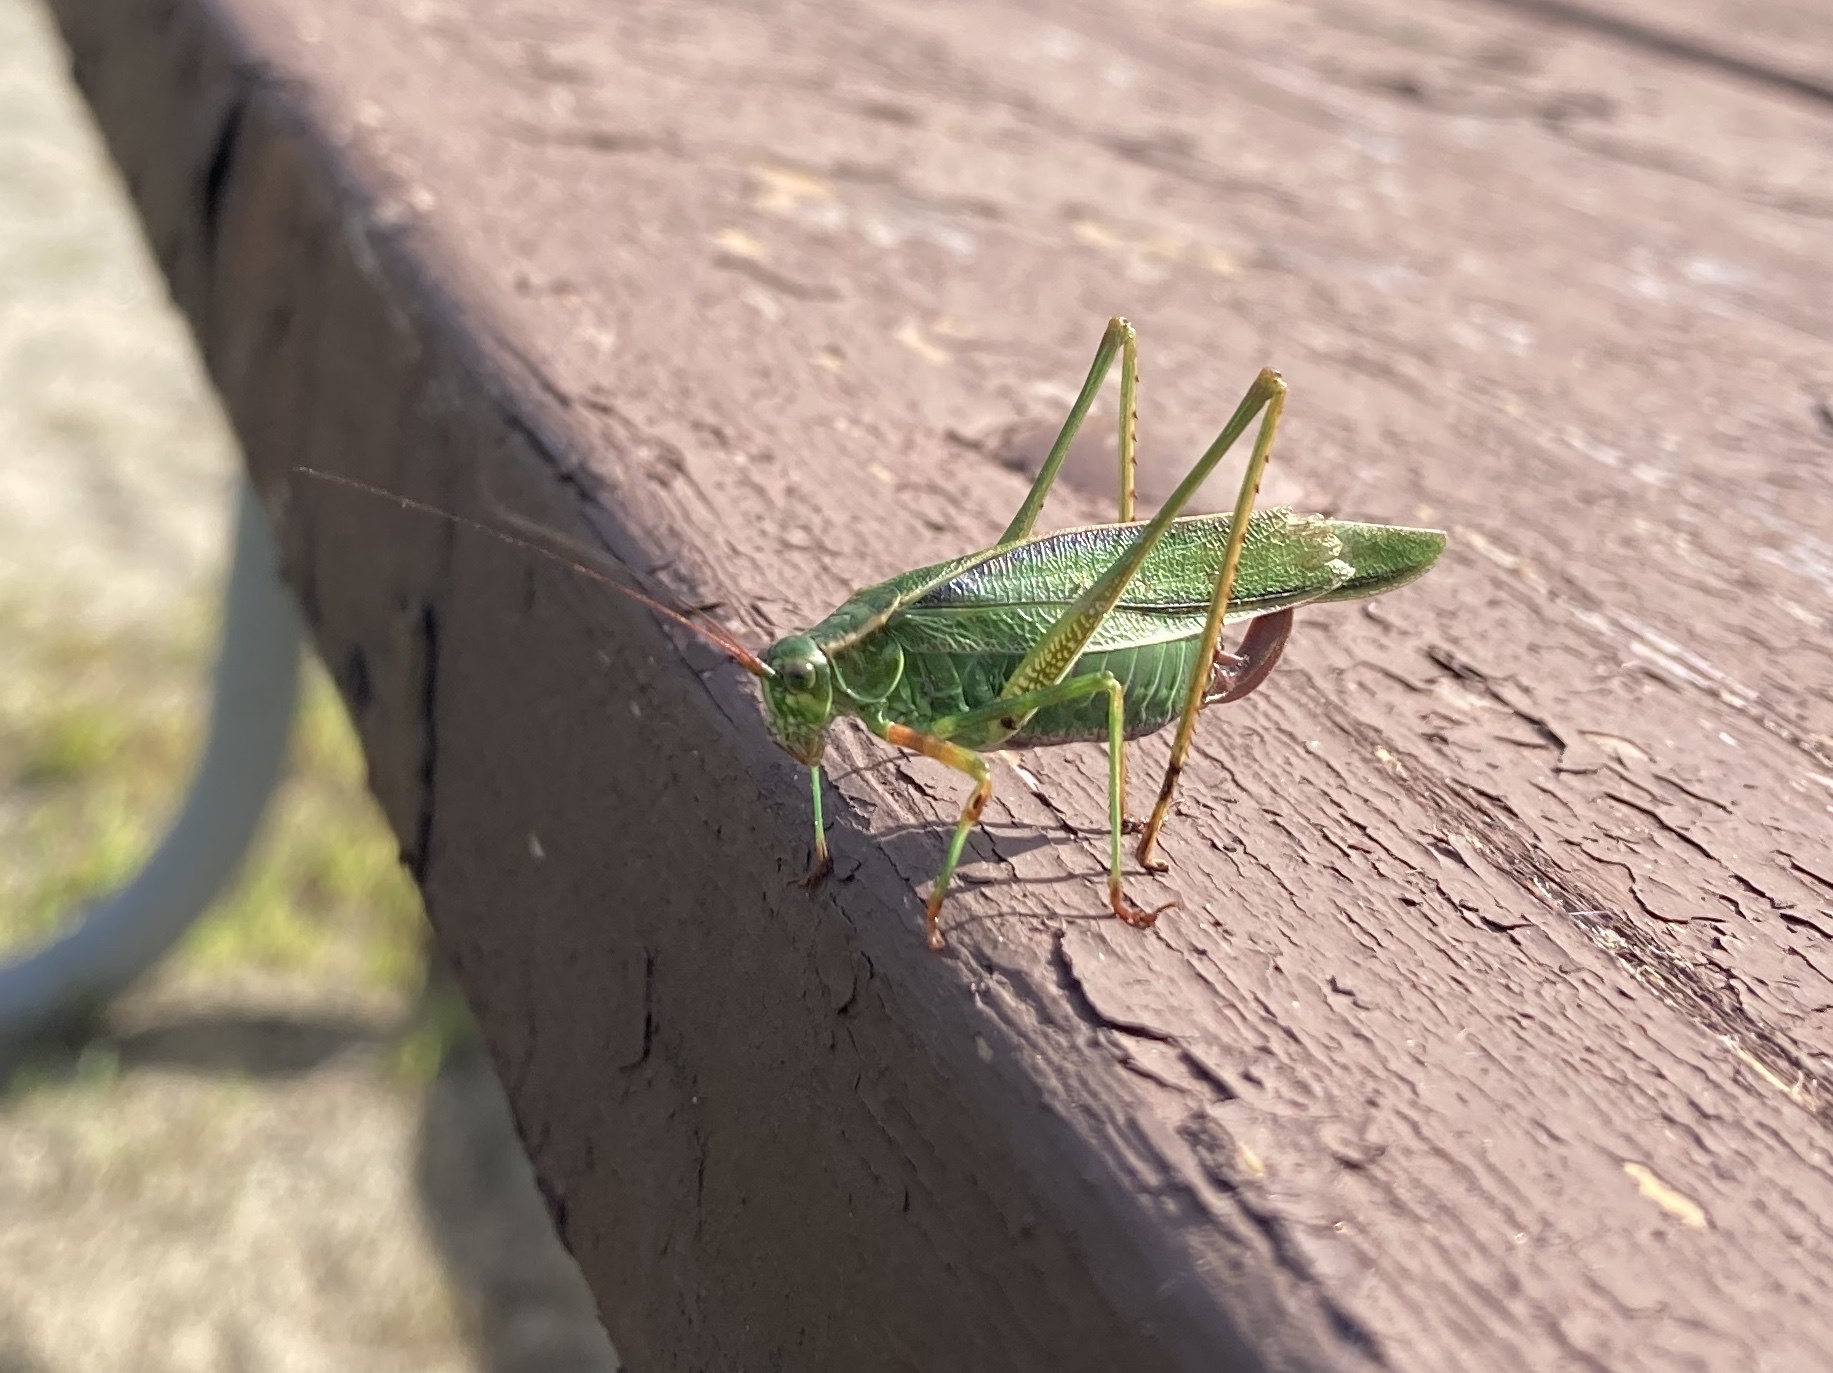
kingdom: Animalia
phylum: Arthropoda
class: Insecta
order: Orthoptera
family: Tettigoniidae
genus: Scudderia
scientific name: Scudderia fasciata
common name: Treetop bush katydid
